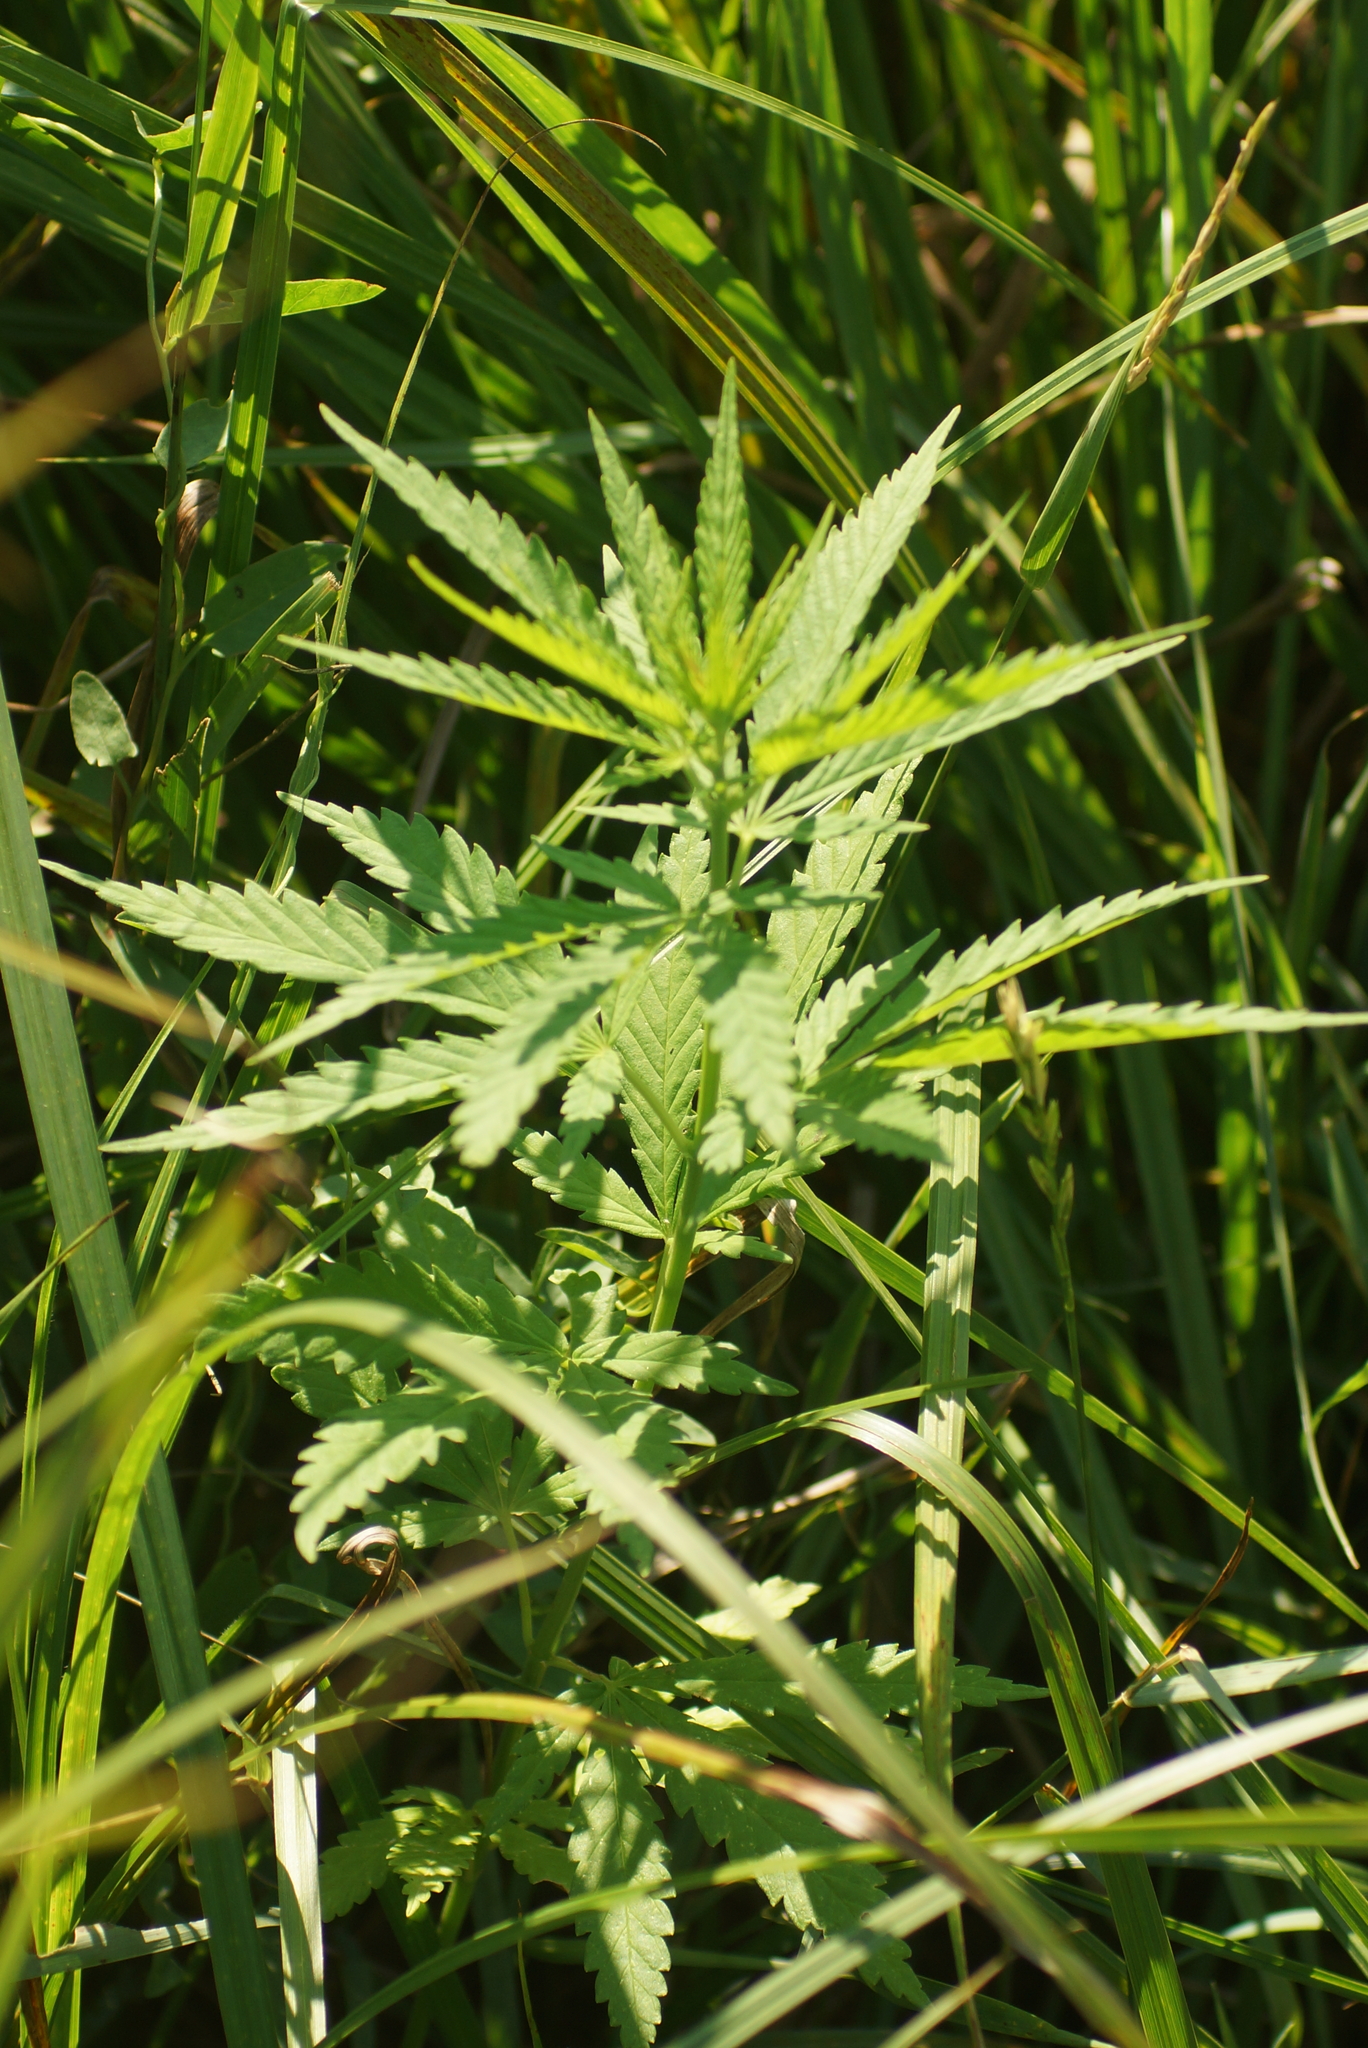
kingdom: Plantae
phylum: Tracheophyta
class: Magnoliopsida
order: Rosales
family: Cannabaceae
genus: Cannabis
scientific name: Cannabis sativa
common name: Hemp
